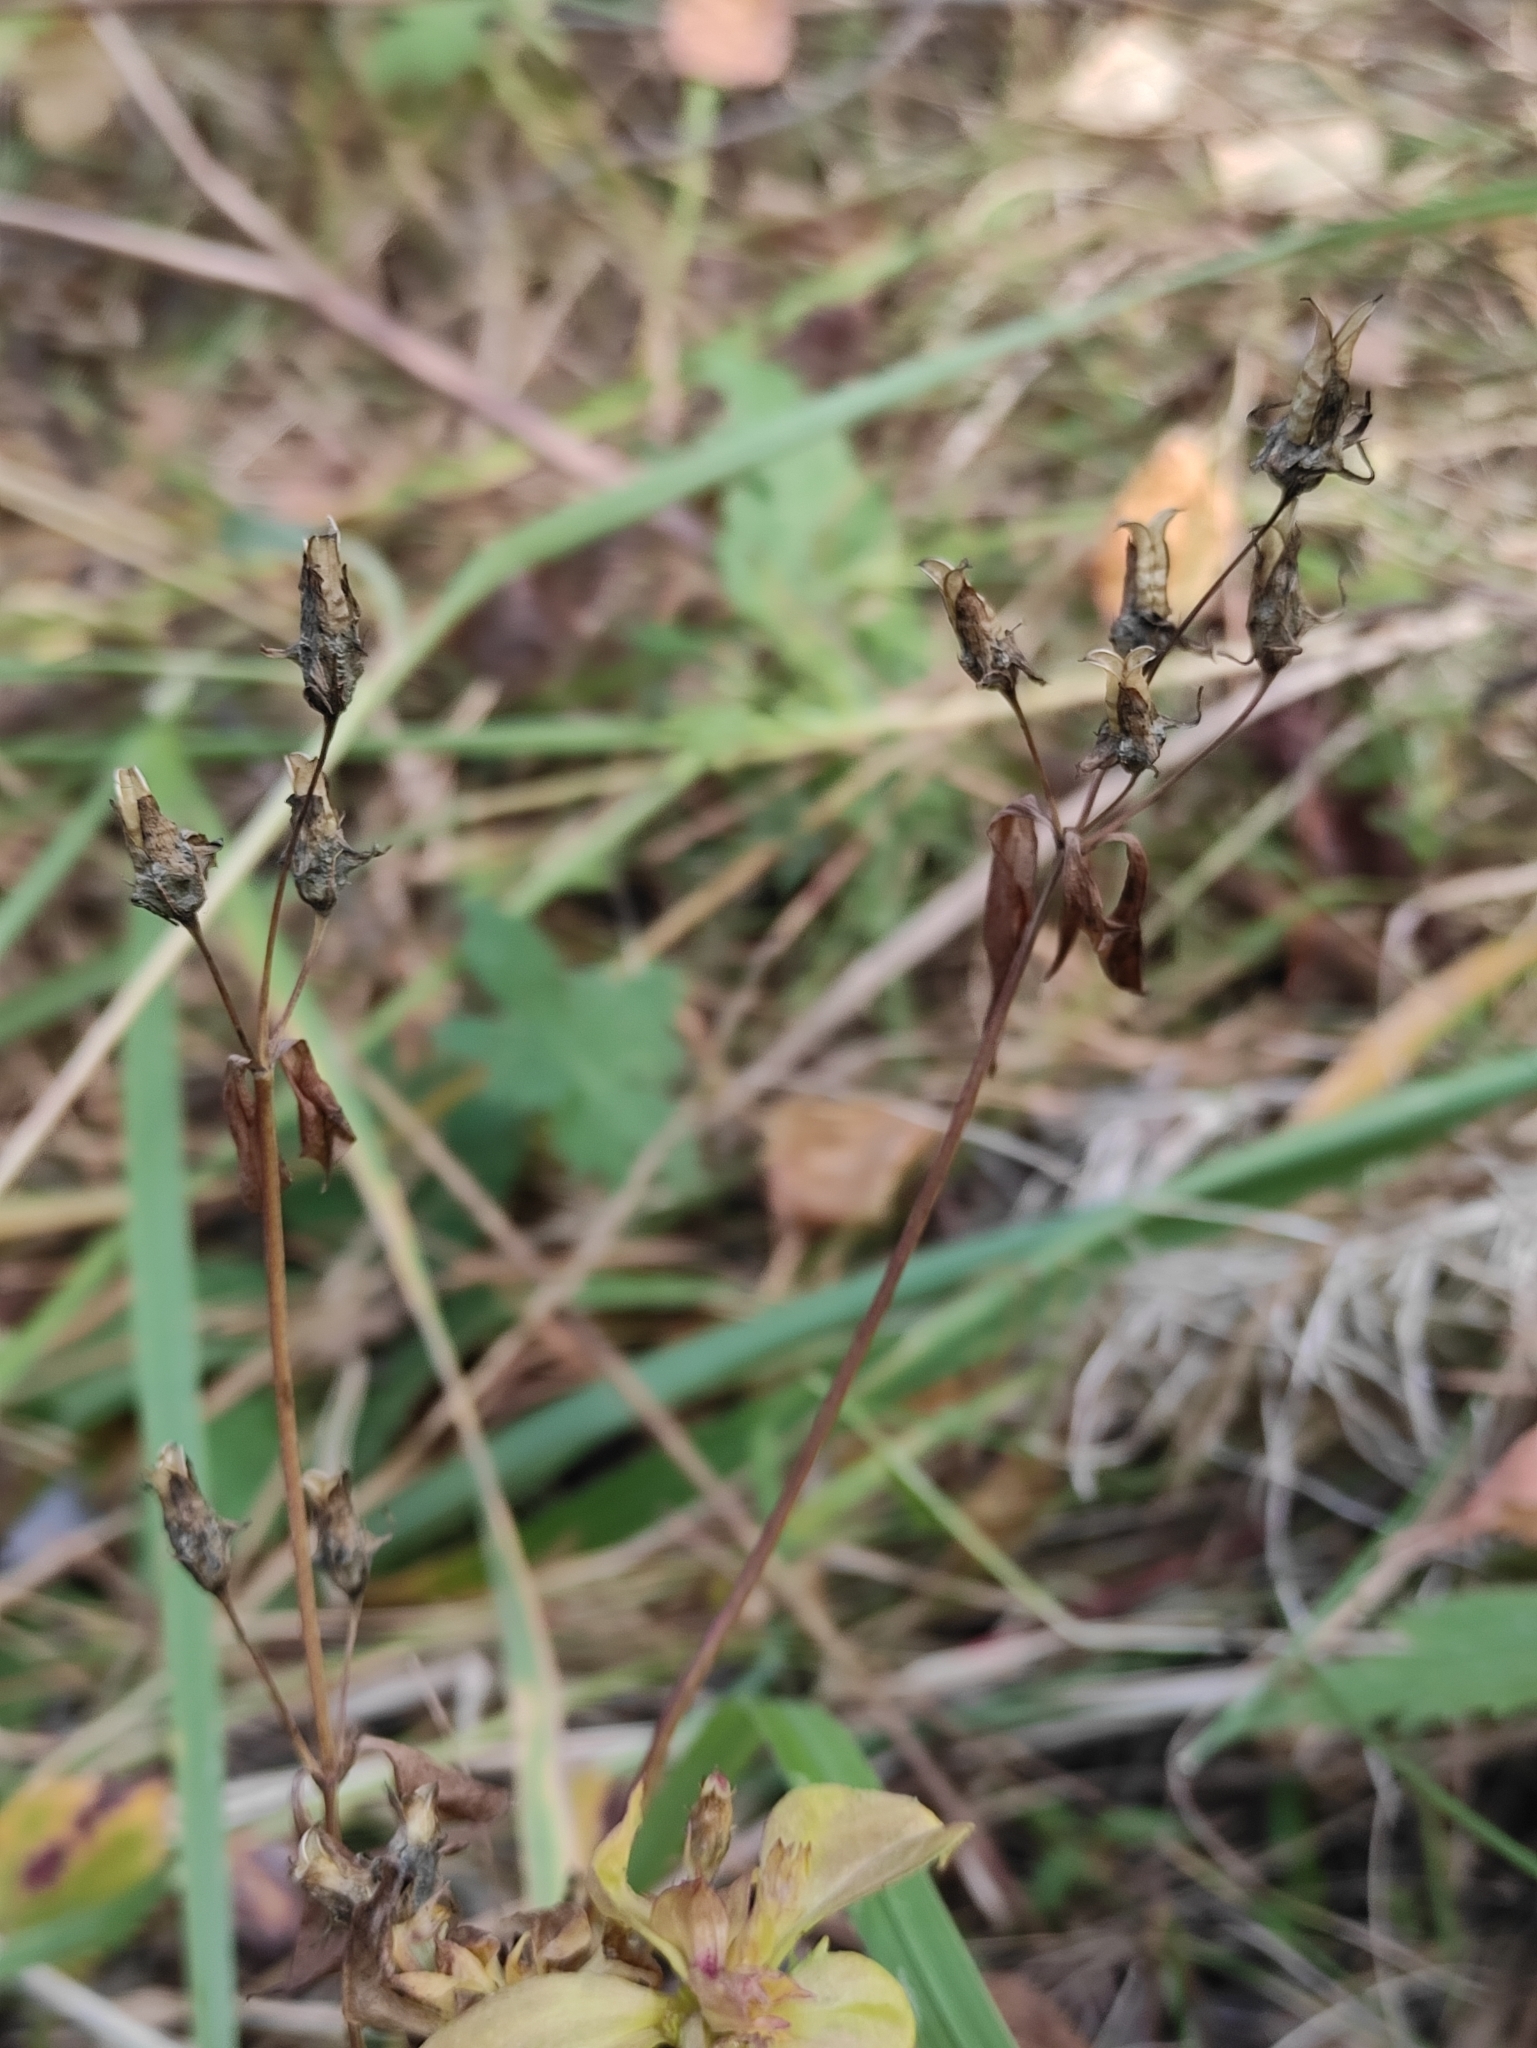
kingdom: Plantae
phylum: Tracheophyta
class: Magnoliopsida
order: Gentianales
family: Gentianaceae
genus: Halenia
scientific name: Halenia corniculata
